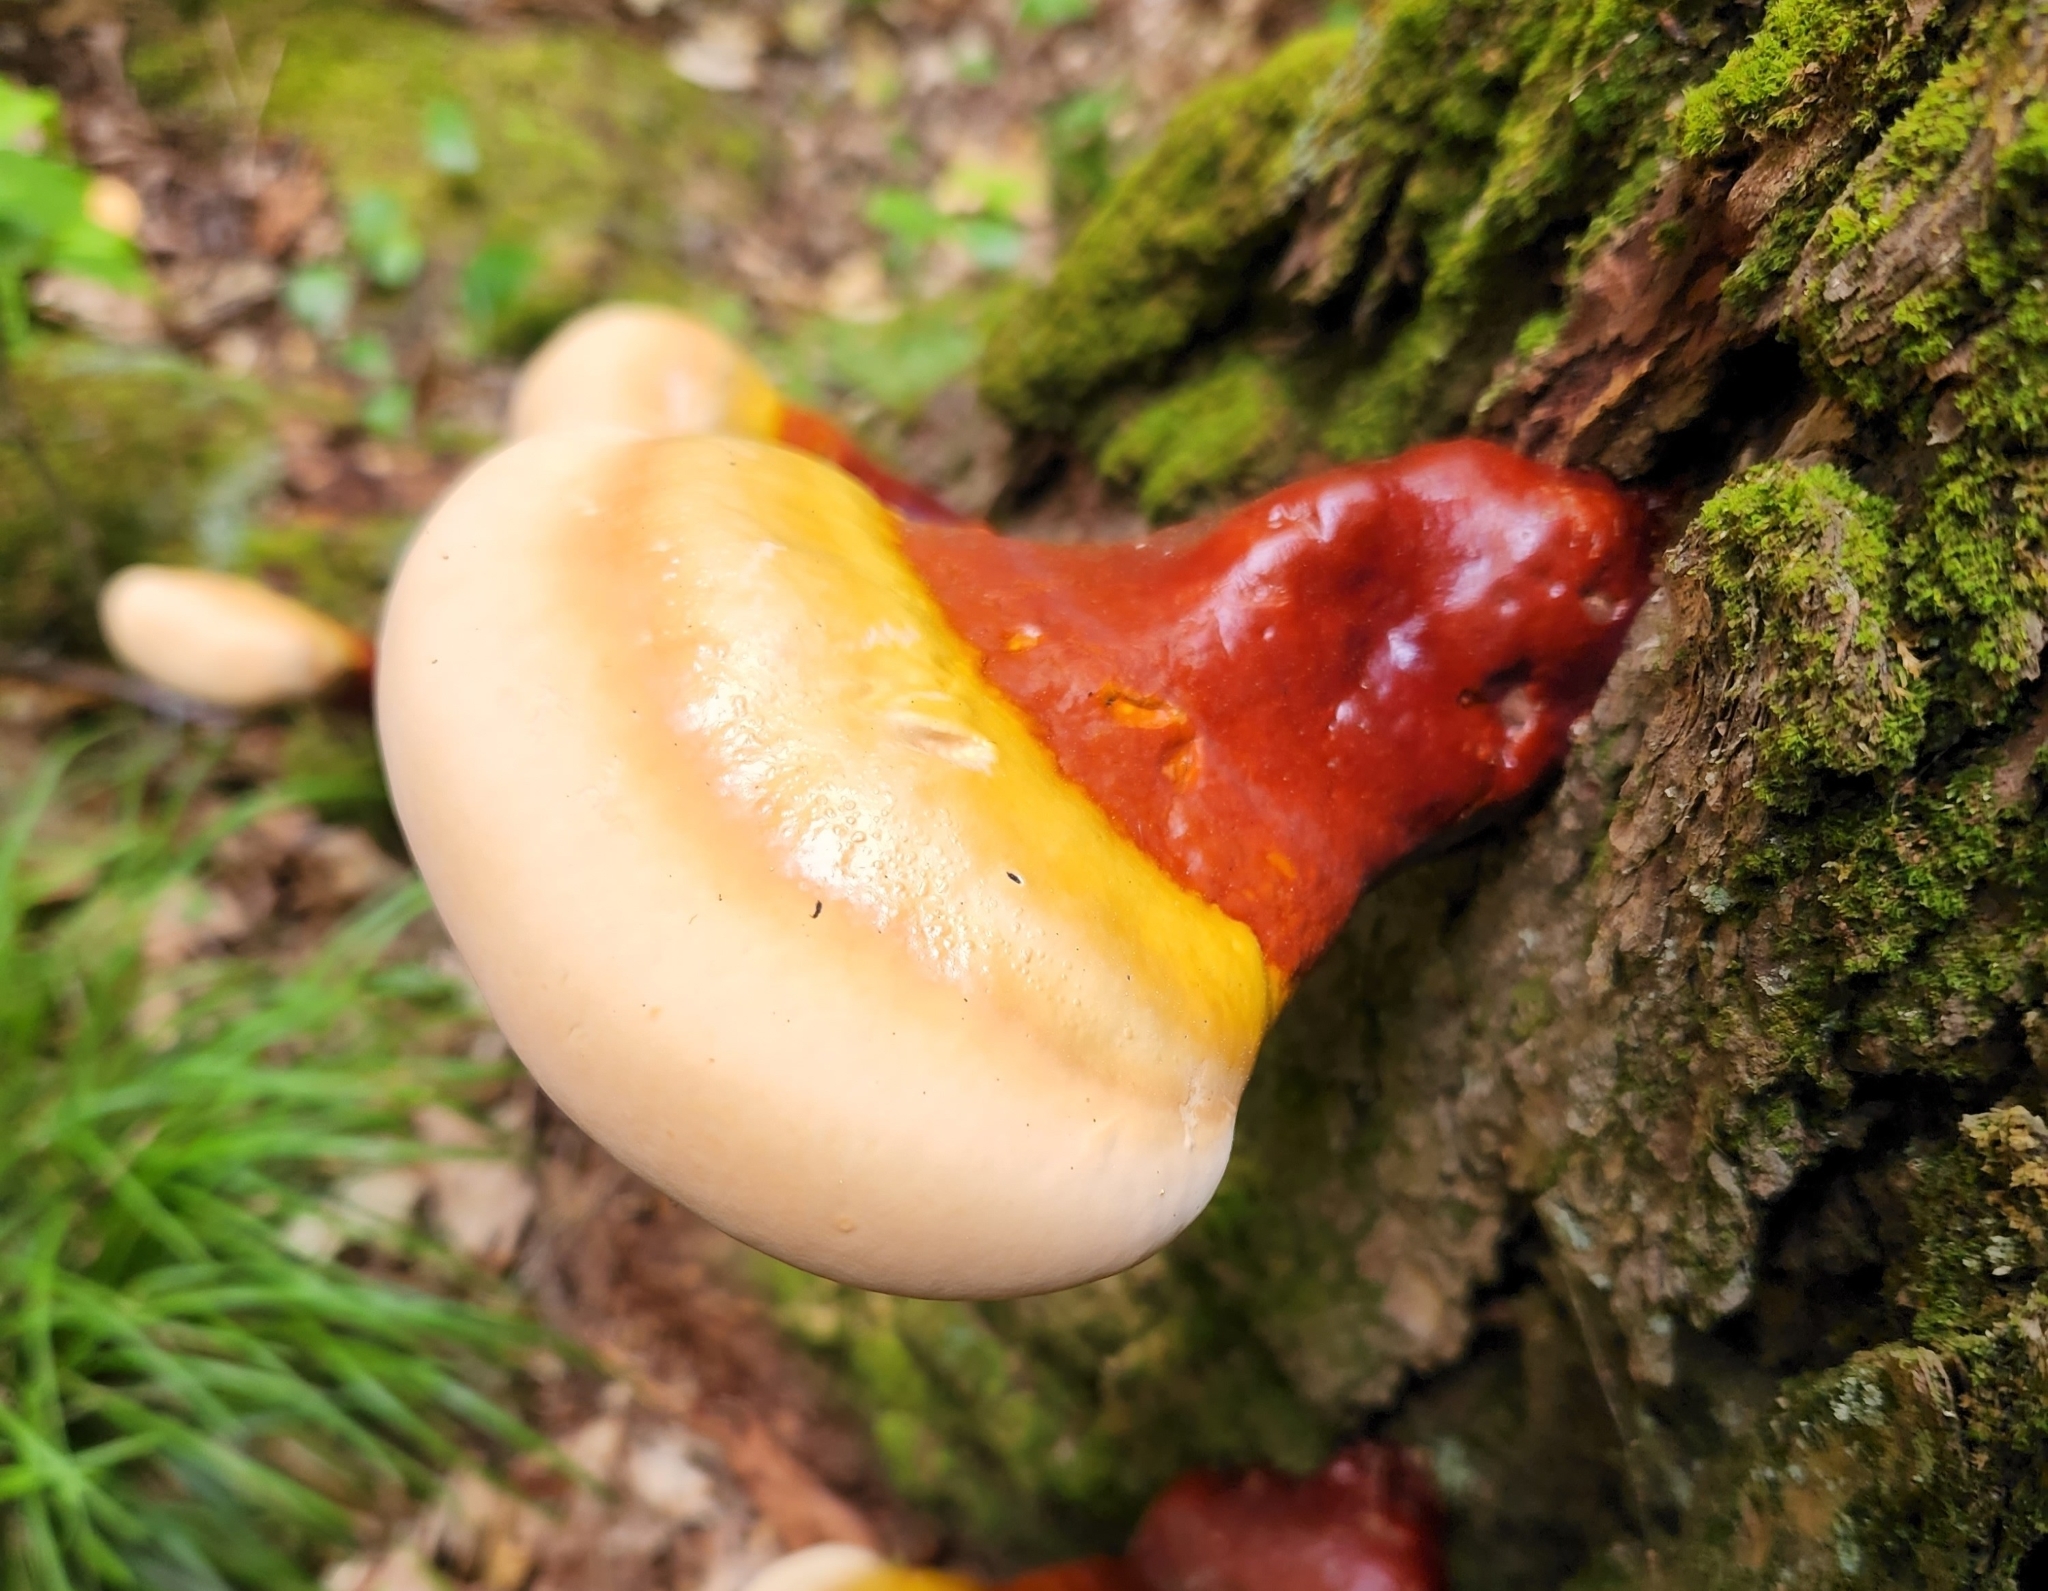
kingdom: Fungi
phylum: Basidiomycota
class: Agaricomycetes
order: Polyporales
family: Polyporaceae
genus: Ganoderma
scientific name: Ganoderma tsugae
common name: Hemlock varnish shelf
